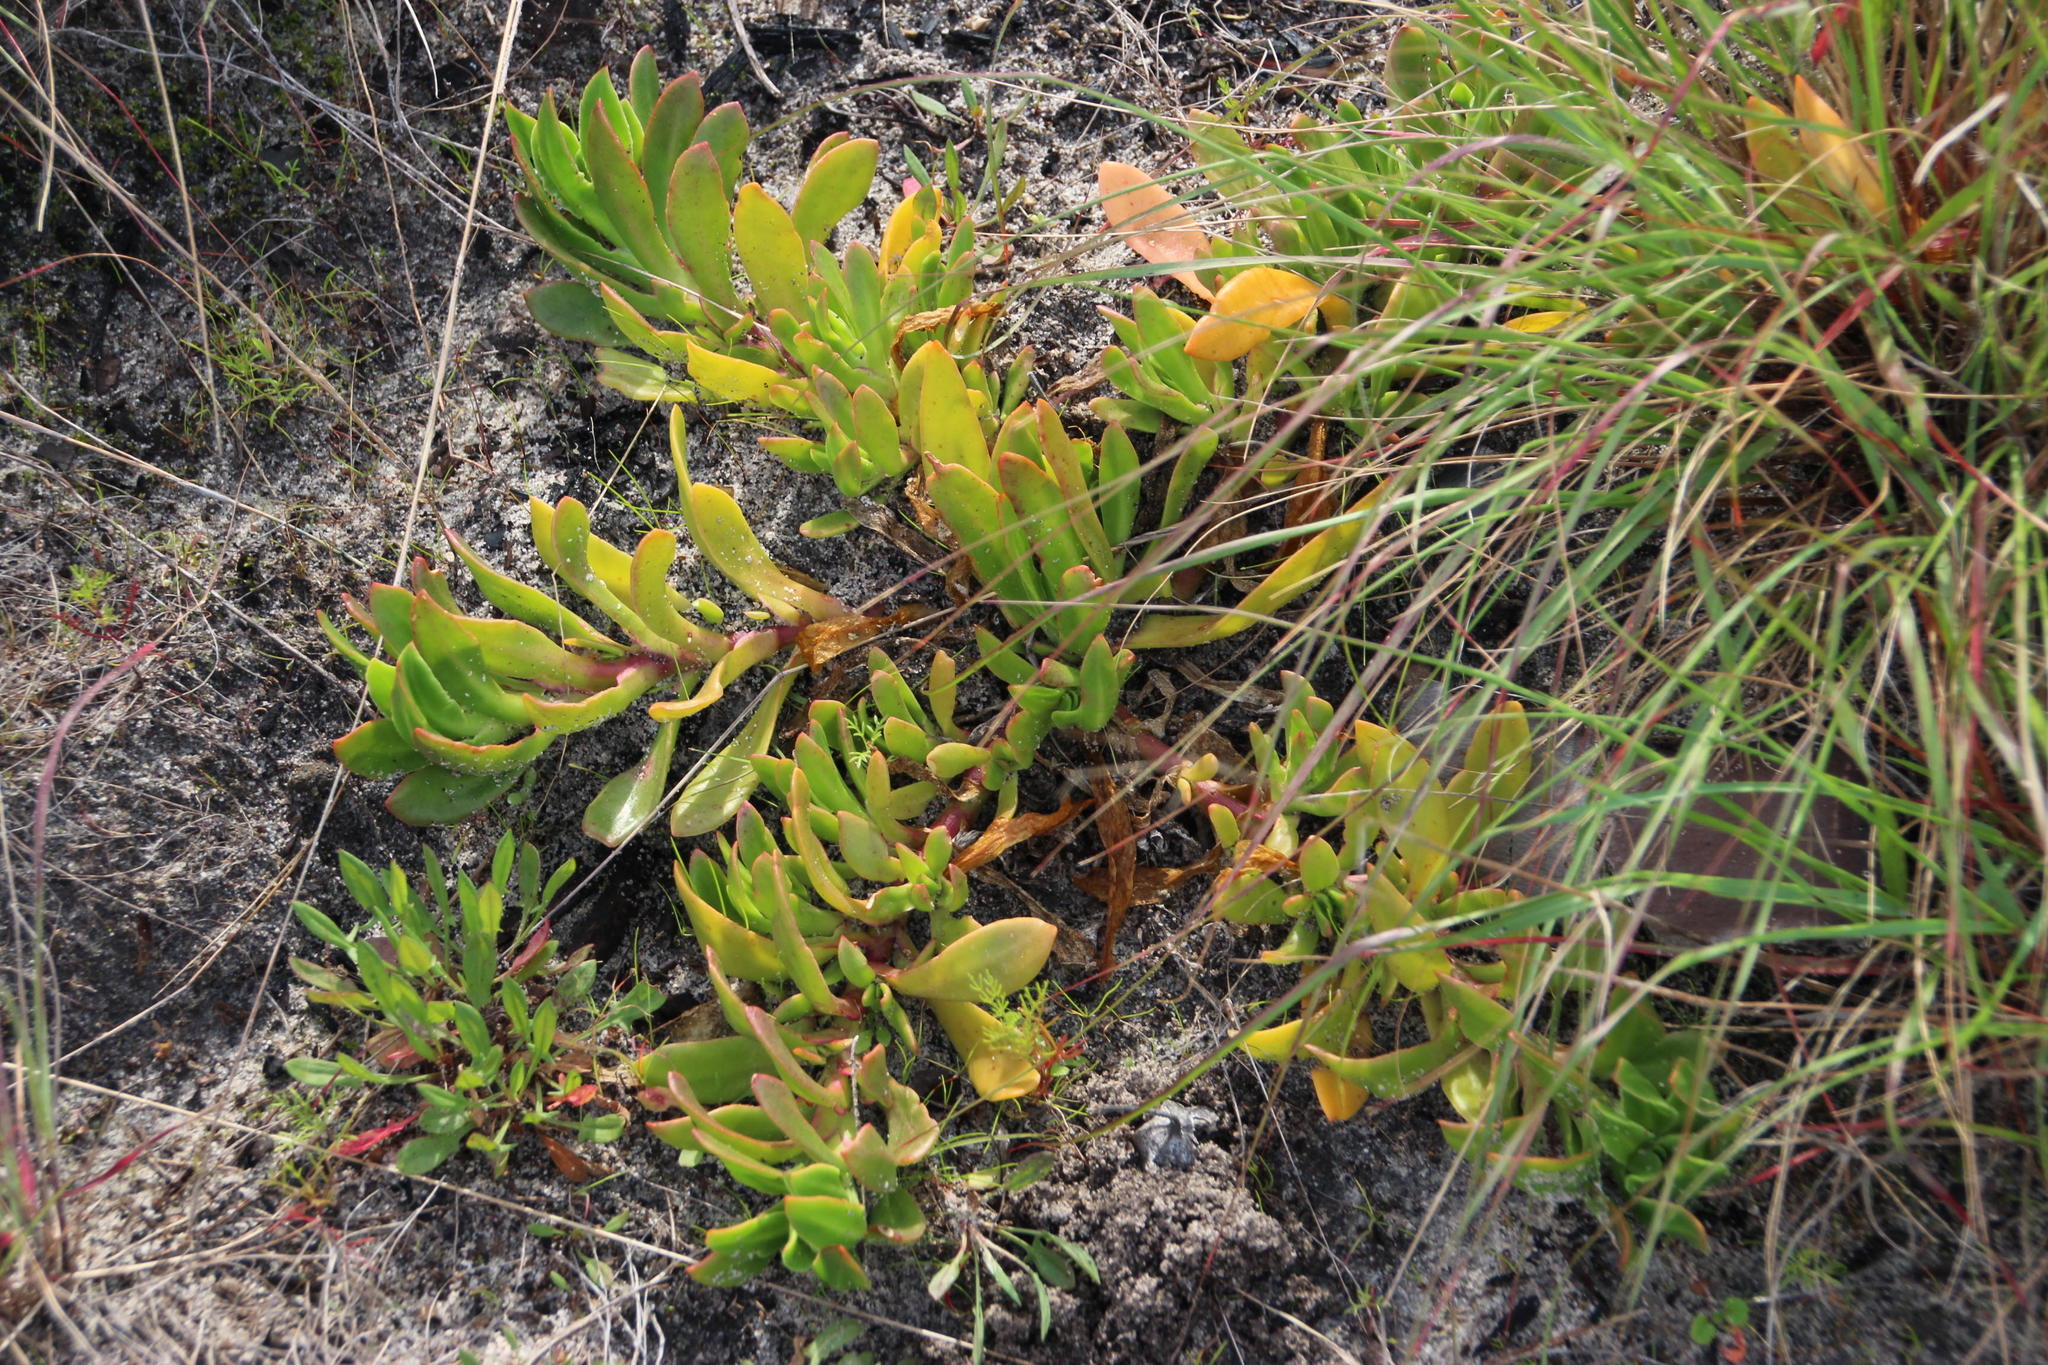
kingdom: Plantae
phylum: Tracheophyta
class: Magnoliopsida
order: Caryophyllales
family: Aizoaceae
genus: Skiatophytum
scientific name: Skiatophytum tripolium
